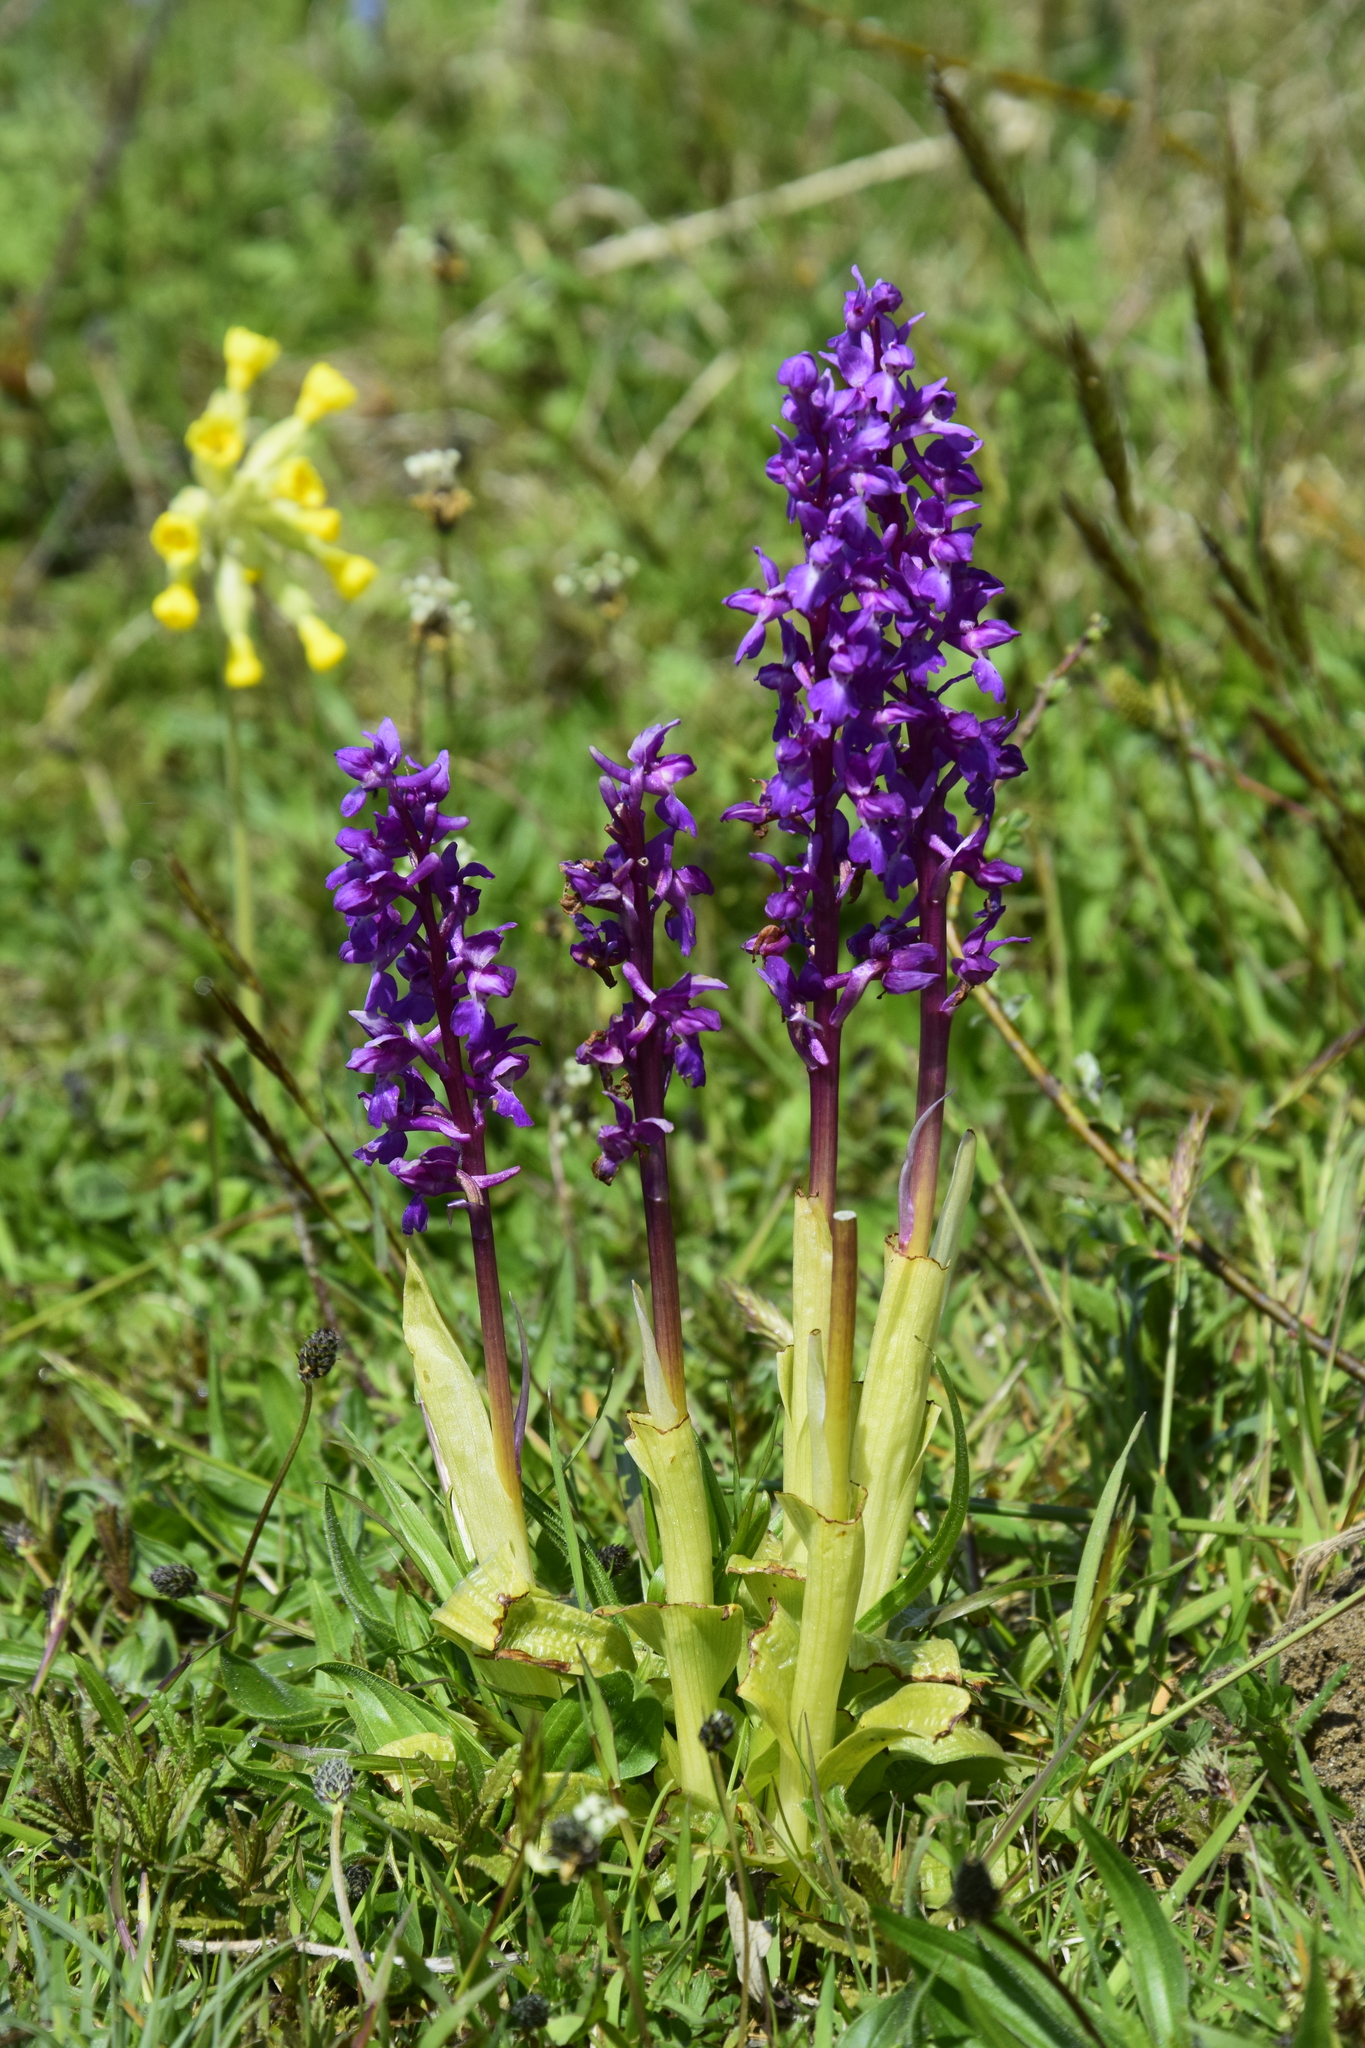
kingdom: Plantae
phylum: Tracheophyta
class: Liliopsida
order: Asparagales
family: Orchidaceae
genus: Orchis
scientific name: Orchis mascula
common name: Early-purple orchid
